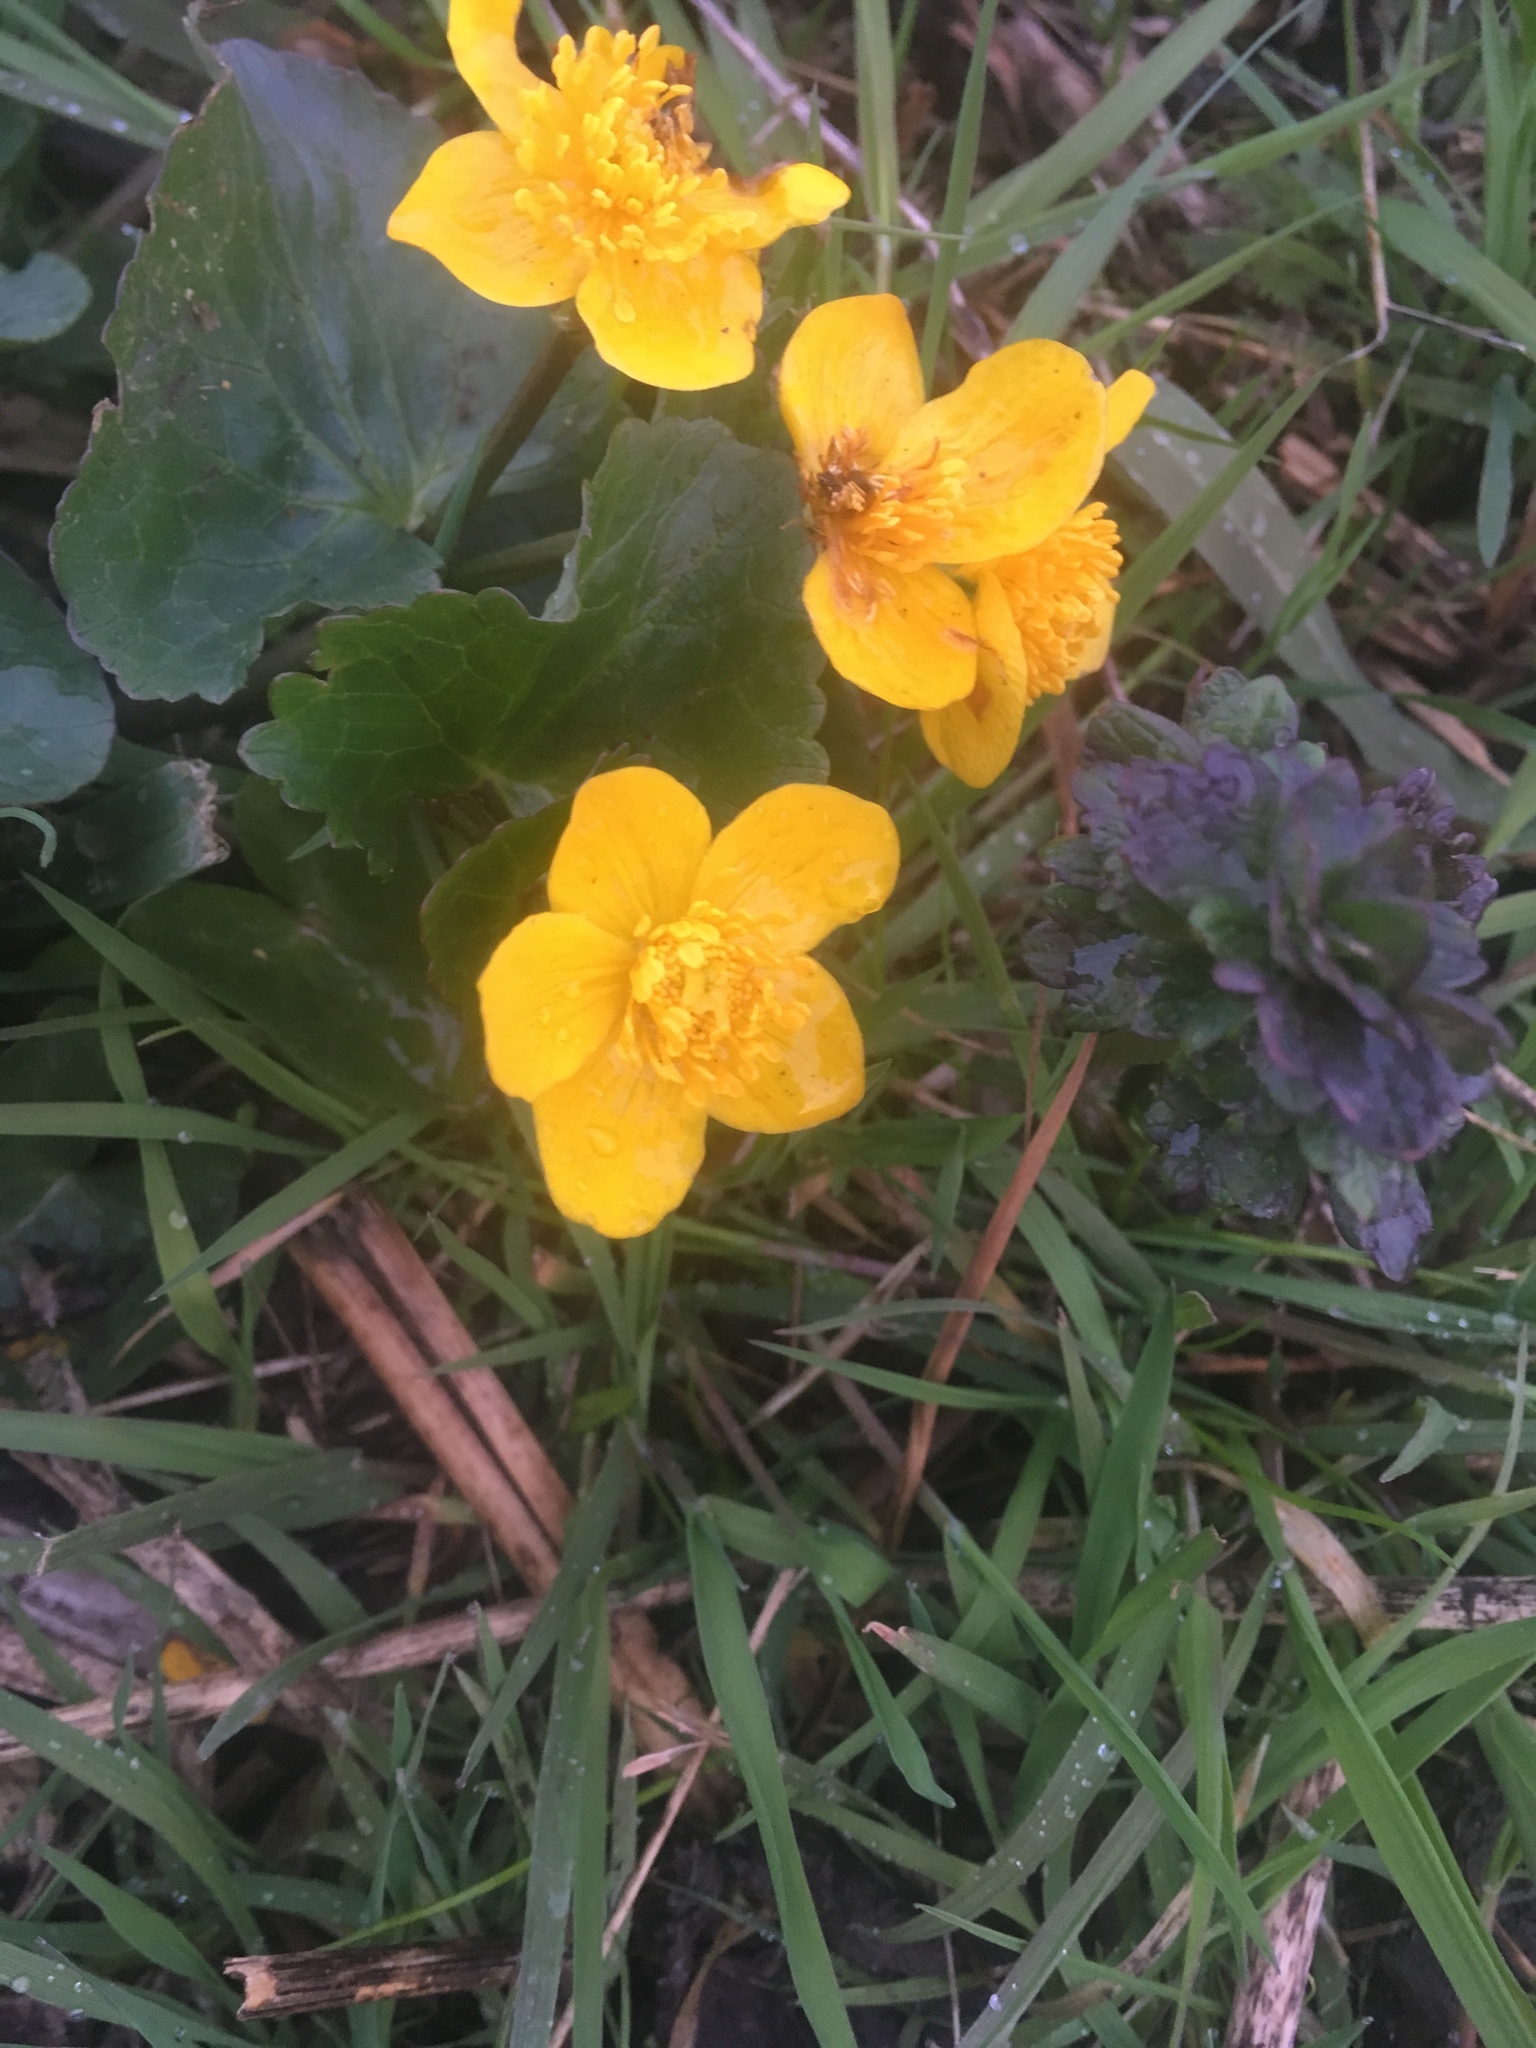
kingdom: Plantae
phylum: Tracheophyta
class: Magnoliopsida
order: Ranunculales
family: Ranunculaceae
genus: Caltha
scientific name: Caltha palustris
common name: Marsh marigold
